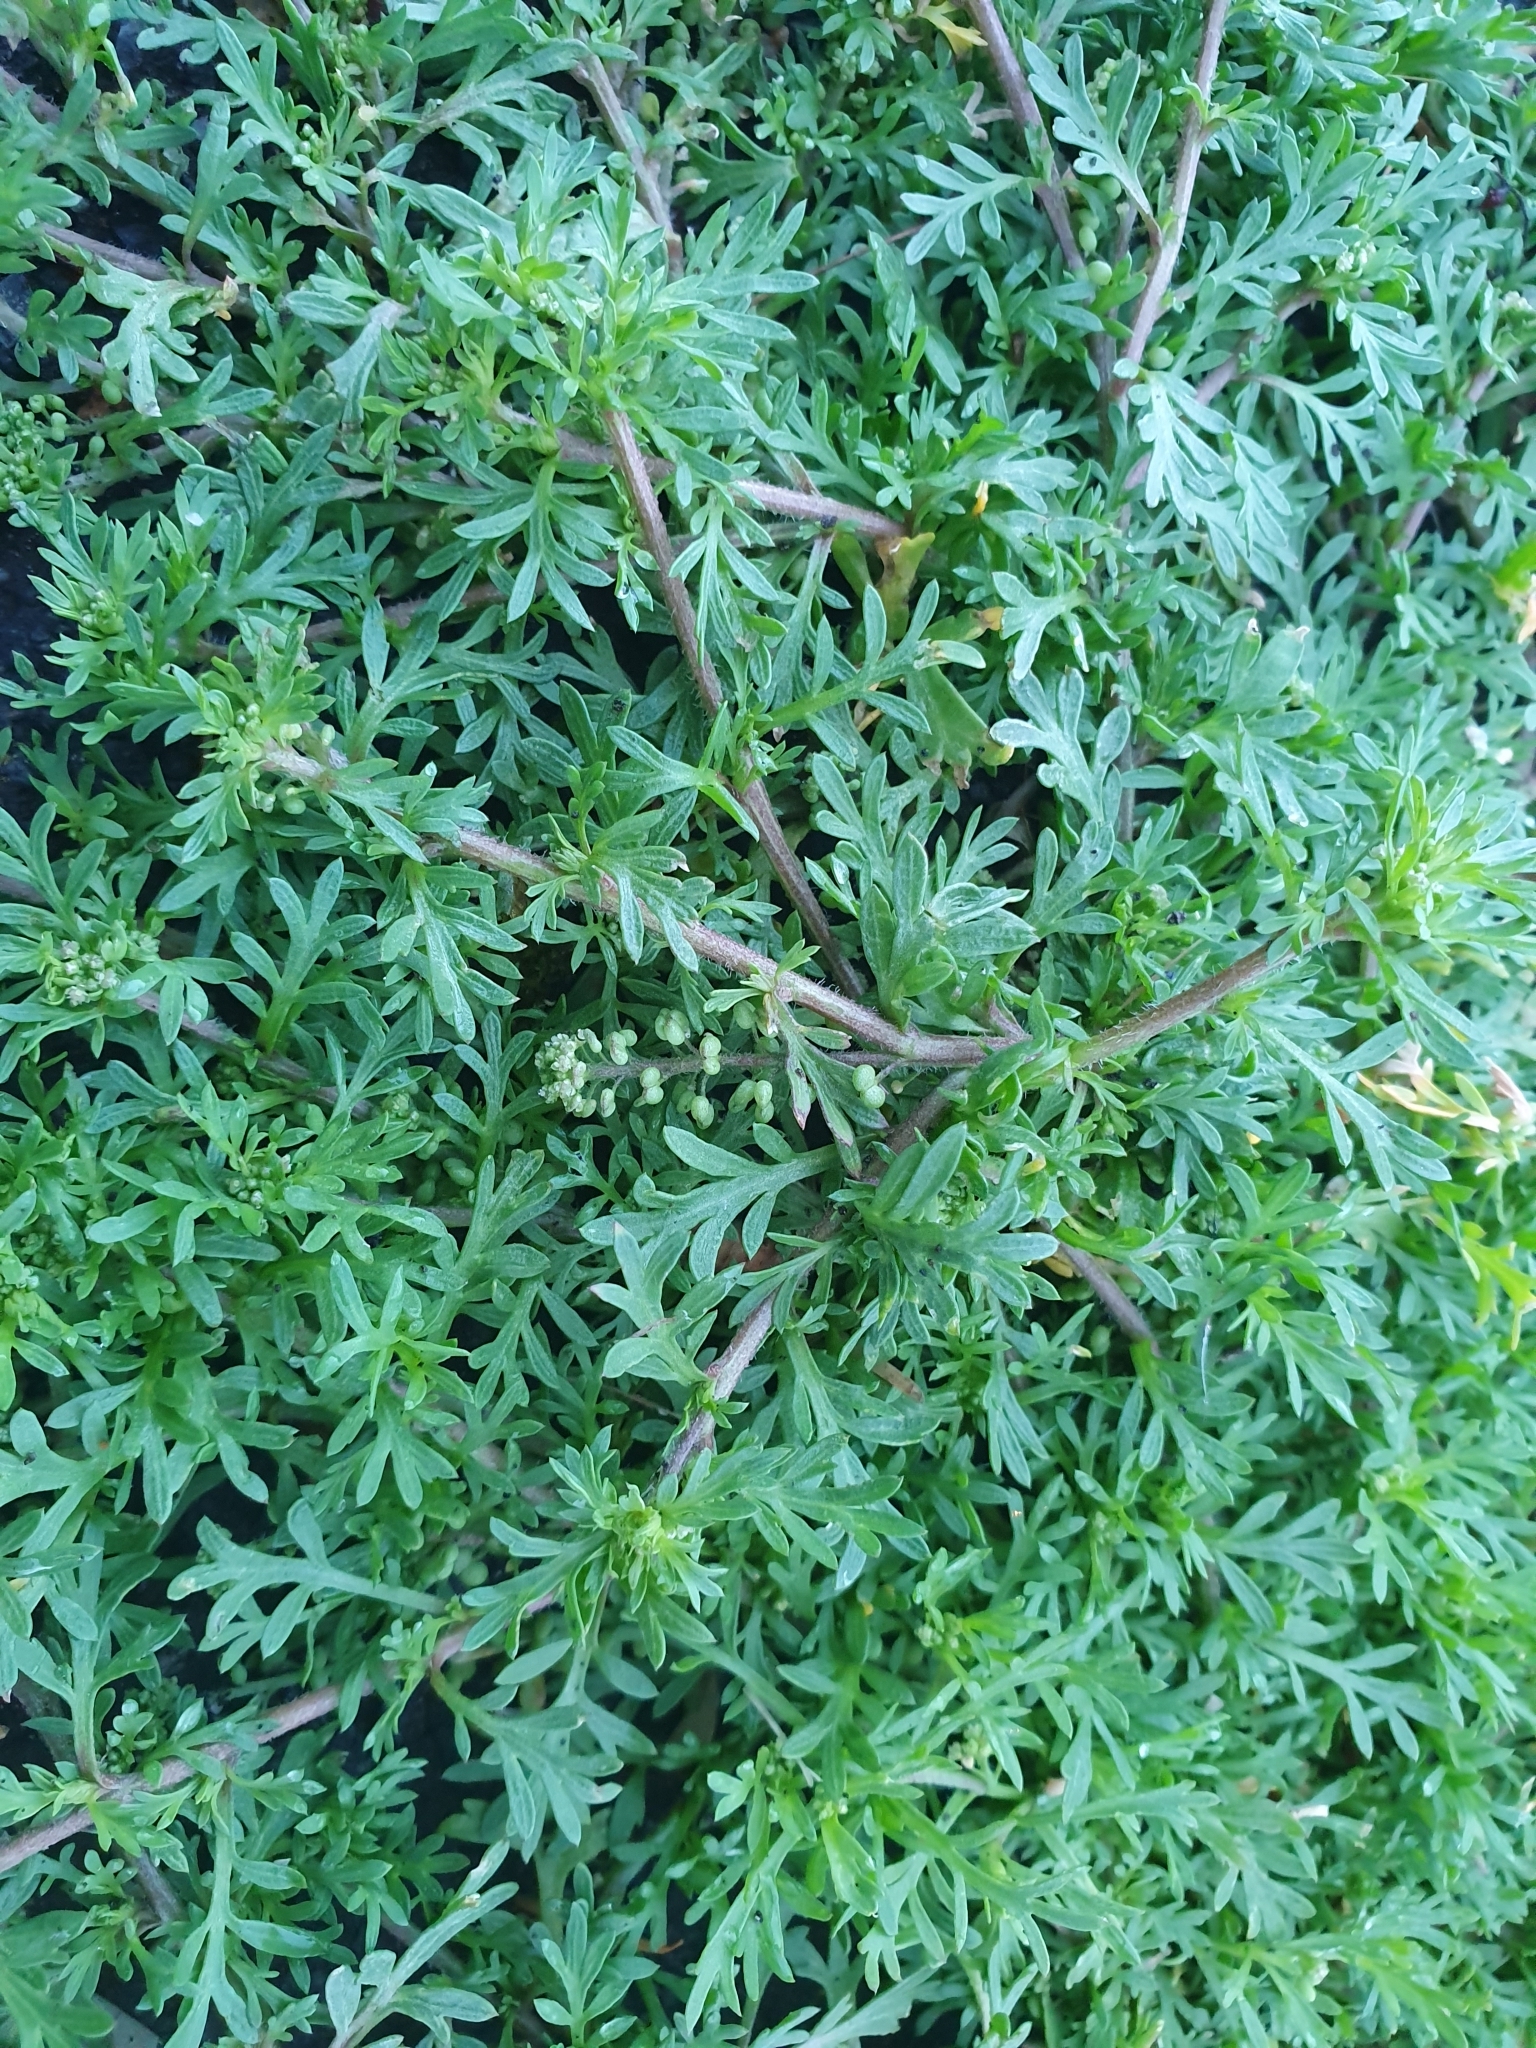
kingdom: Plantae
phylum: Tracheophyta
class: Magnoliopsida
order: Brassicales
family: Brassicaceae
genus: Lepidium
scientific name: Lepidium didymum
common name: Lesser swinecress
